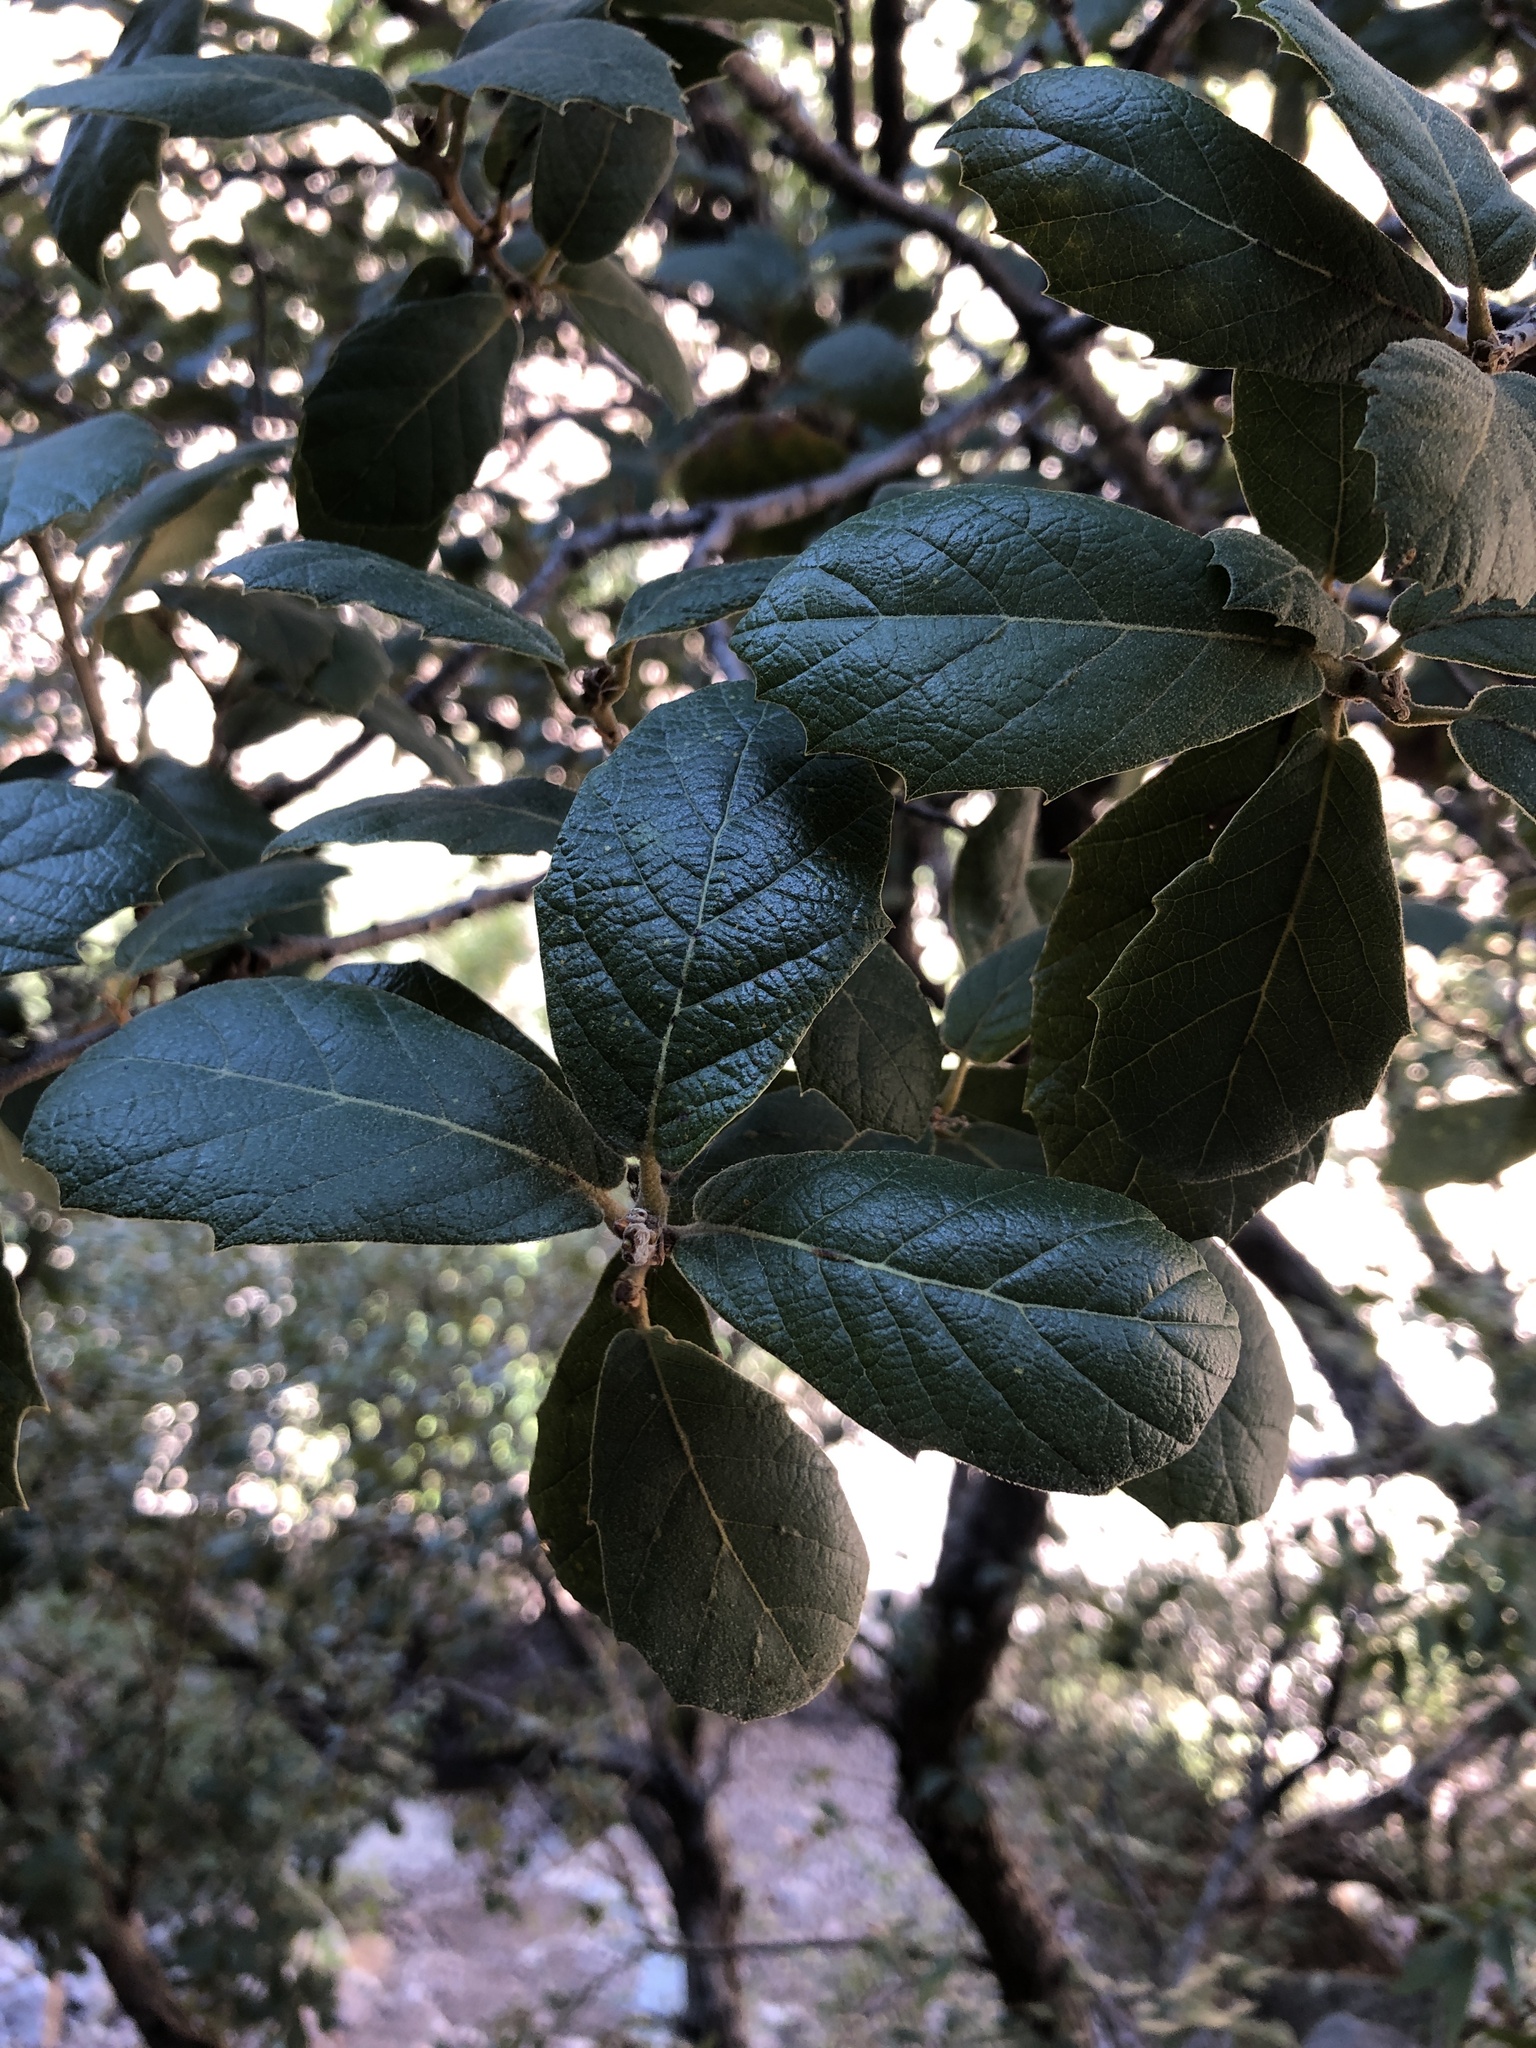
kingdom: Plantae
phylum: Tracheophyta
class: Magnoliopsida
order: Fagales
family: Fagaceae
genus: Quercus
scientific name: Quercus rugosa
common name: Netleaf oak
